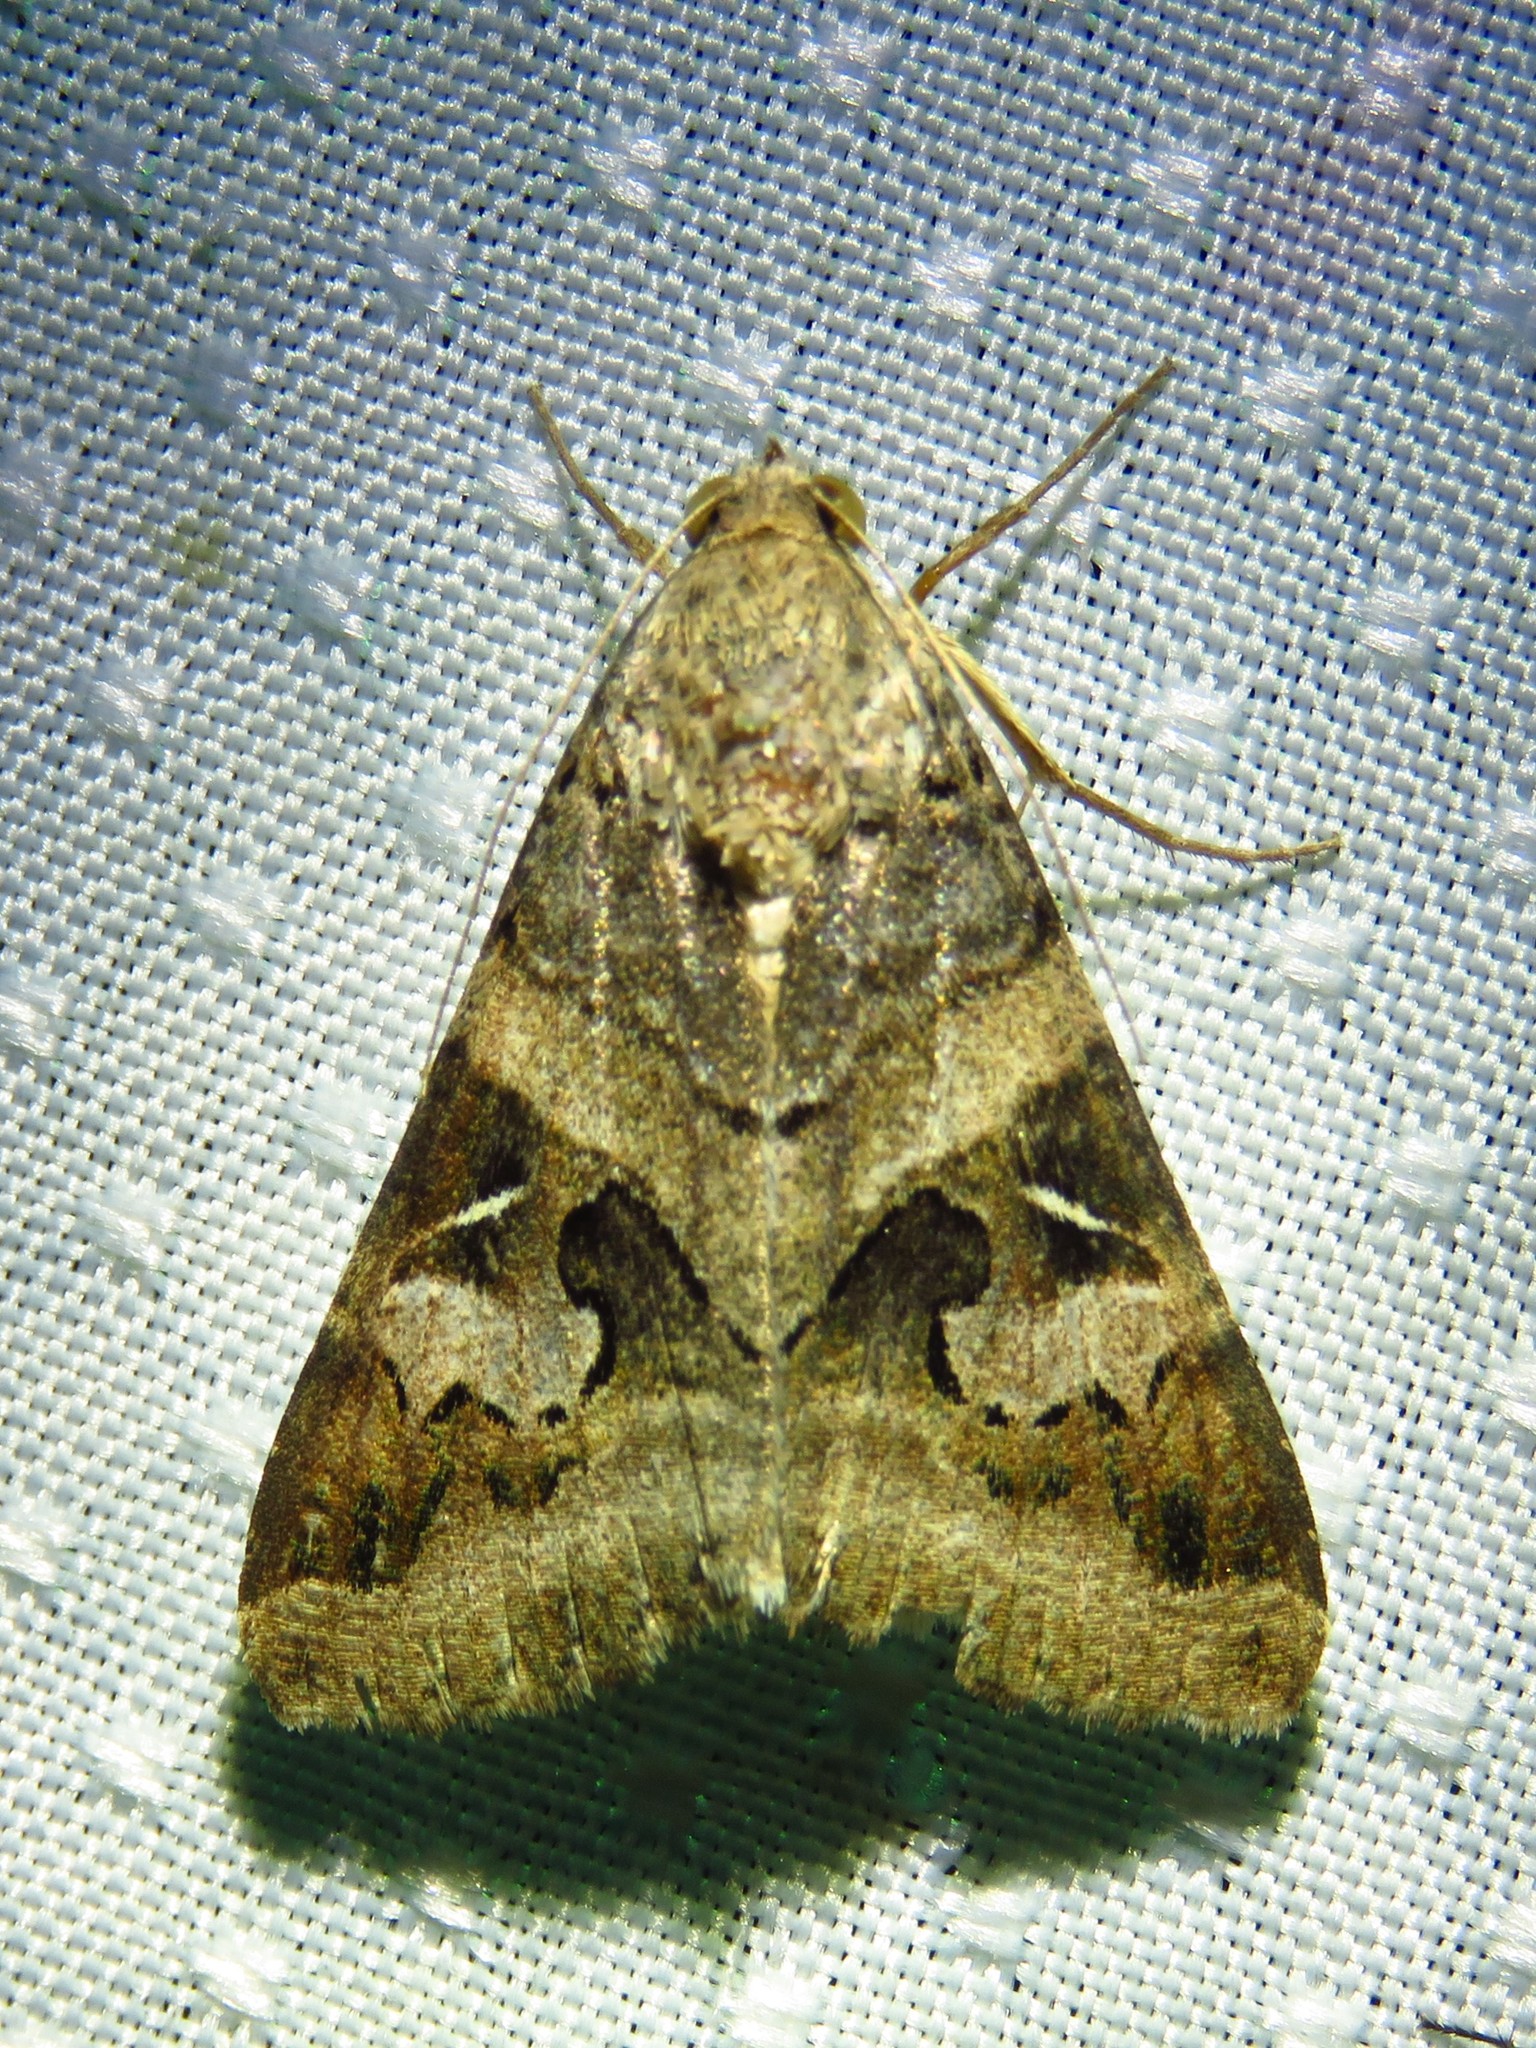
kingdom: Animalia
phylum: Arthropoda
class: Insecta
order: Lepidoptera
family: Erebidae
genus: Melipotis
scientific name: Melipotis indomita
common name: Moth
